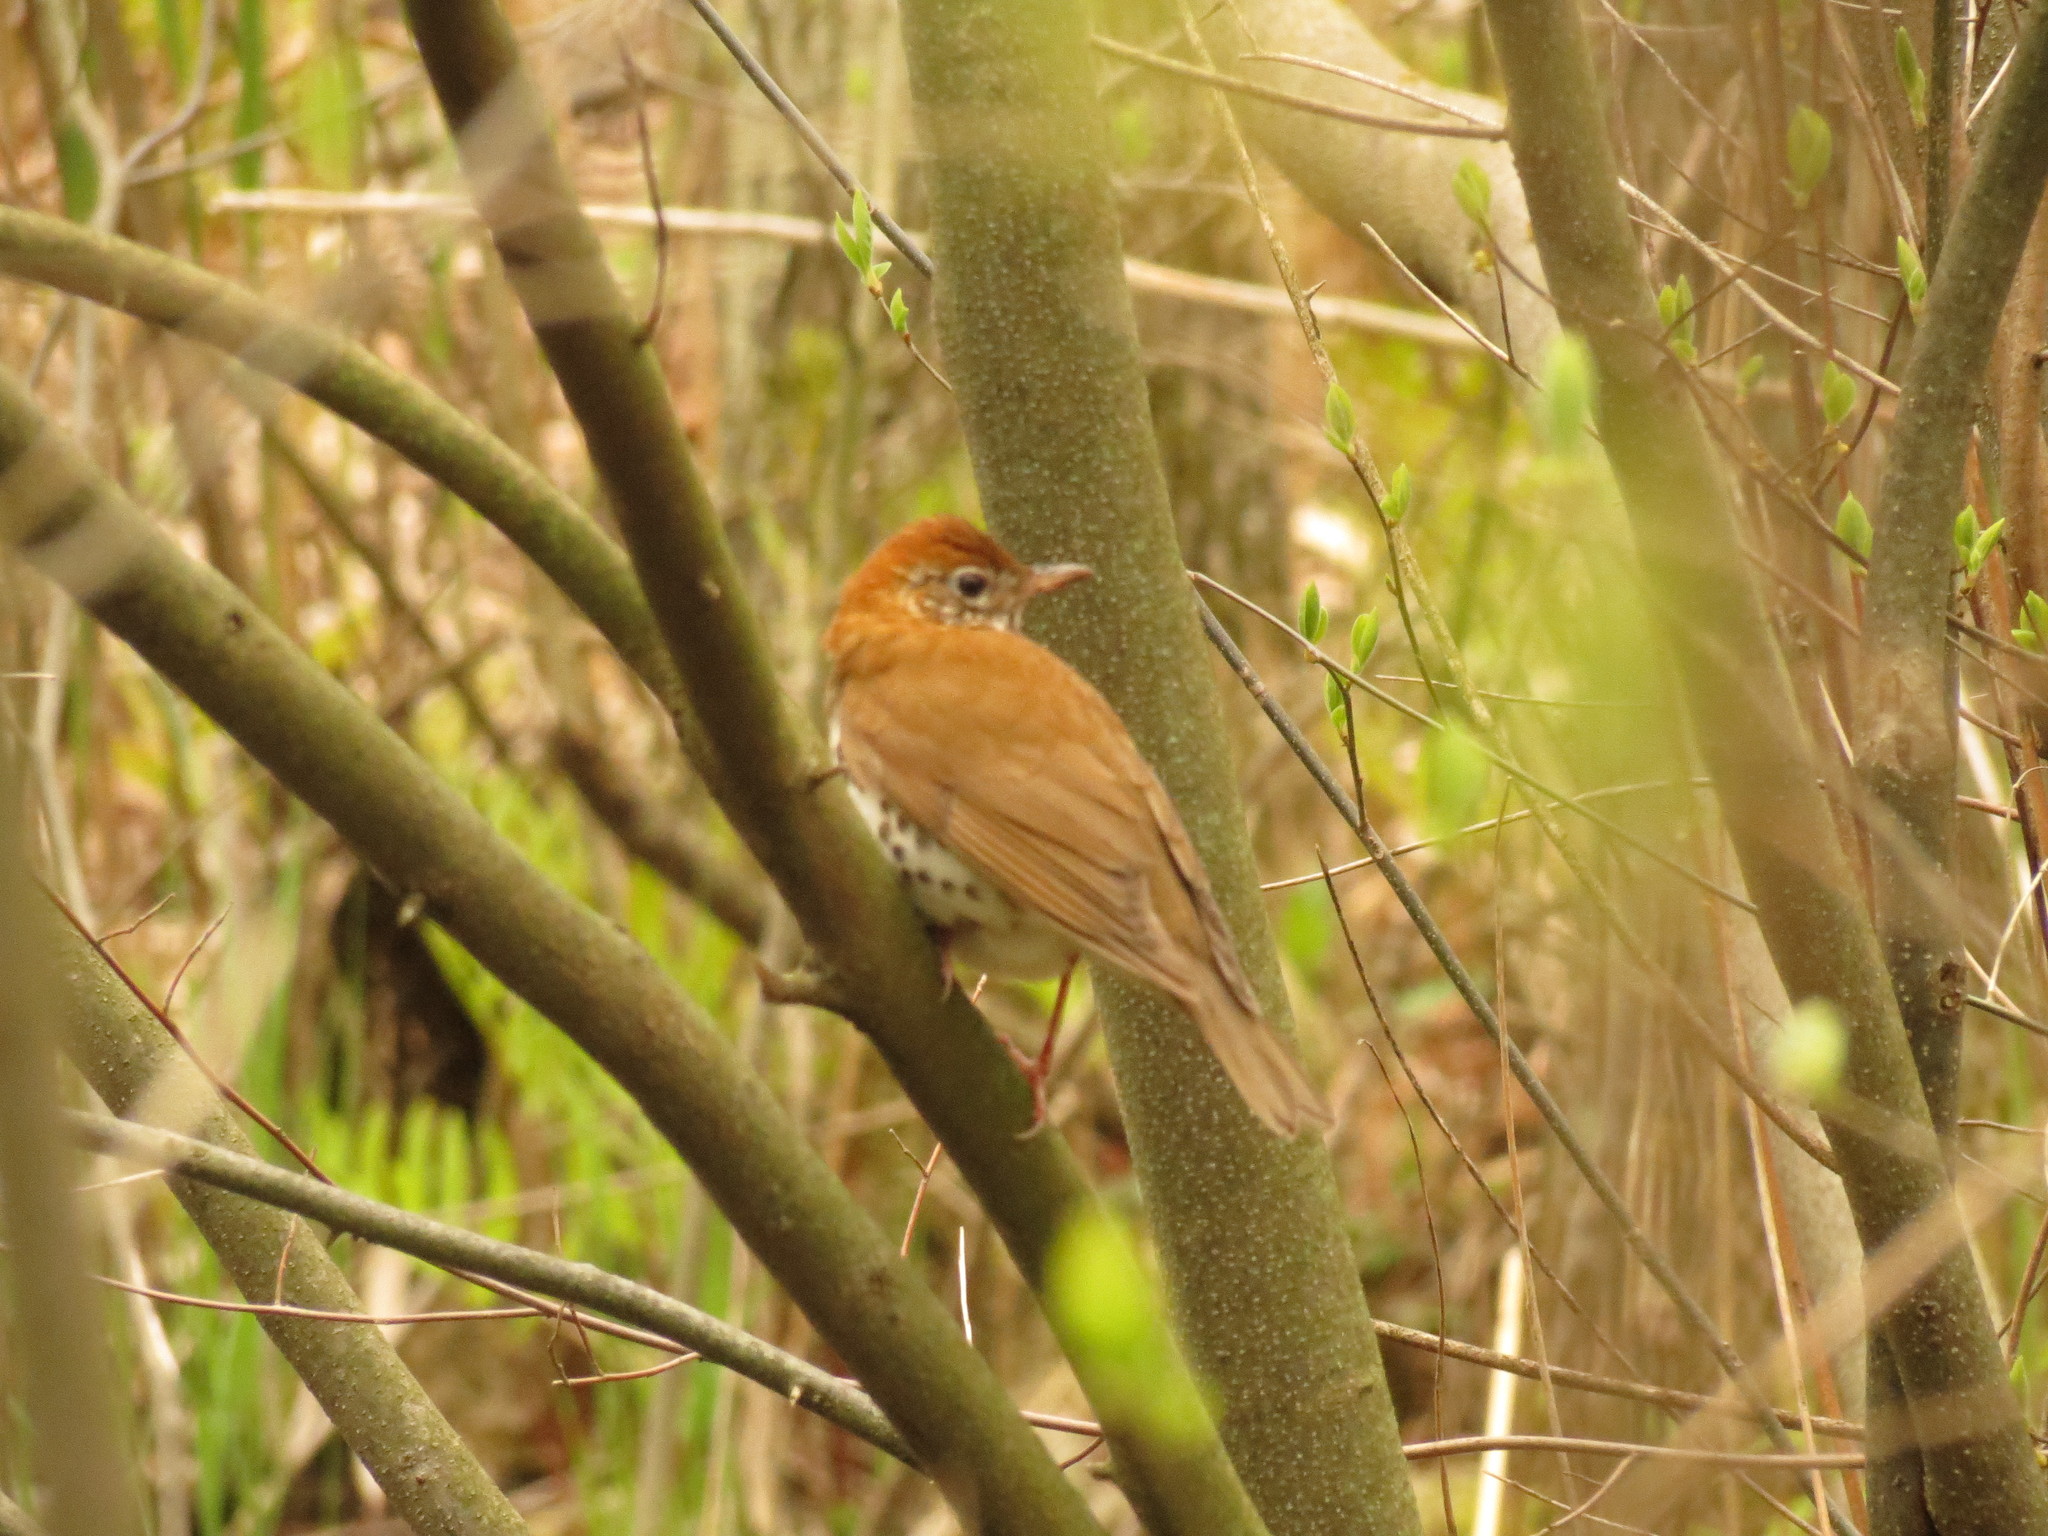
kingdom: Animalia
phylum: Chordata
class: Aves
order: Passeriformes
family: Turdidae
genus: Hylocichla
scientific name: Hylocichla mustelina
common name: Wood thrush
